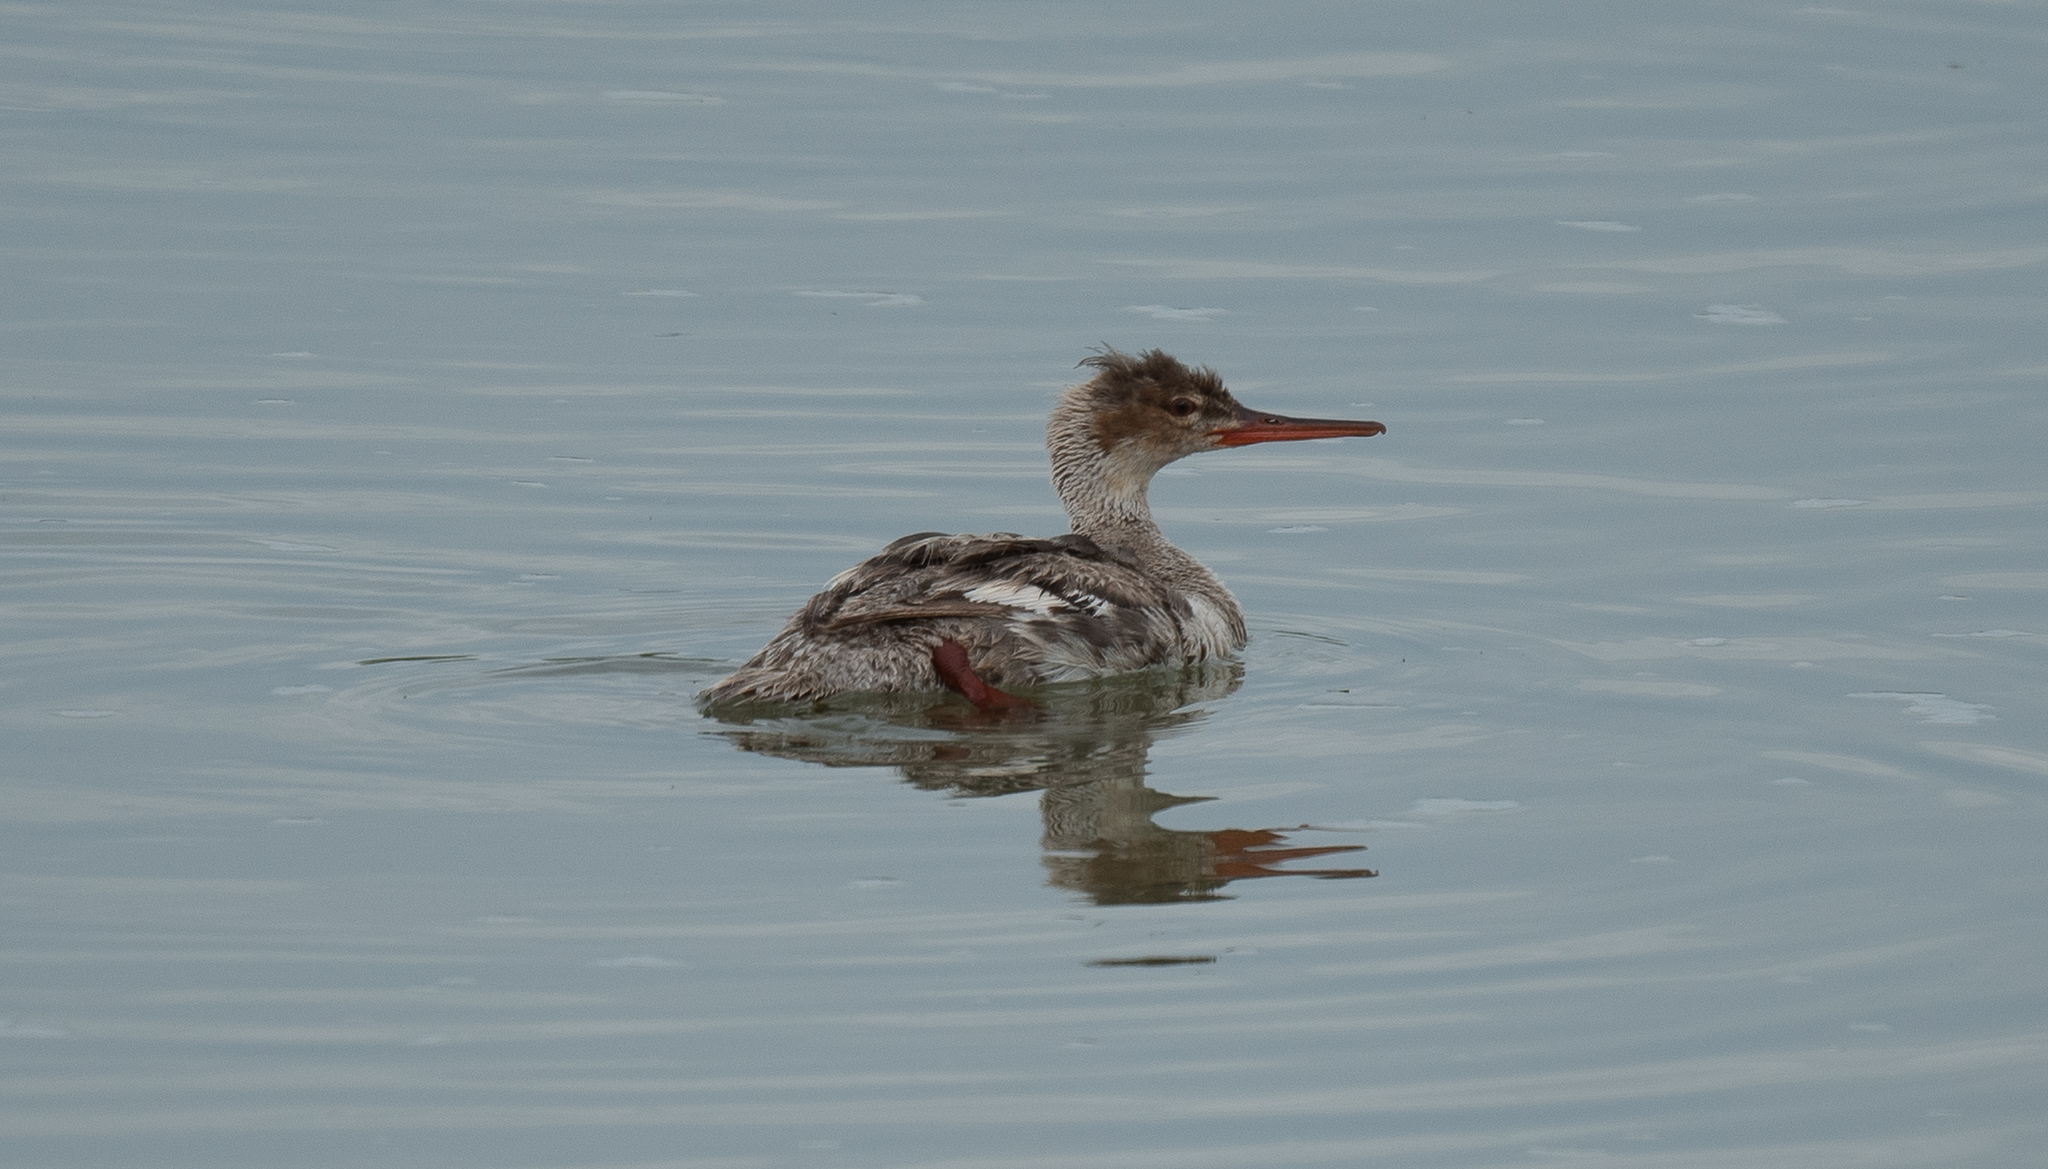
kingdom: Animalia
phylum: Chordata
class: Aves
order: Anseriformes
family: Anatidae
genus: Mergus
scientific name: Mergus serrator
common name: Red-breasted merganser
